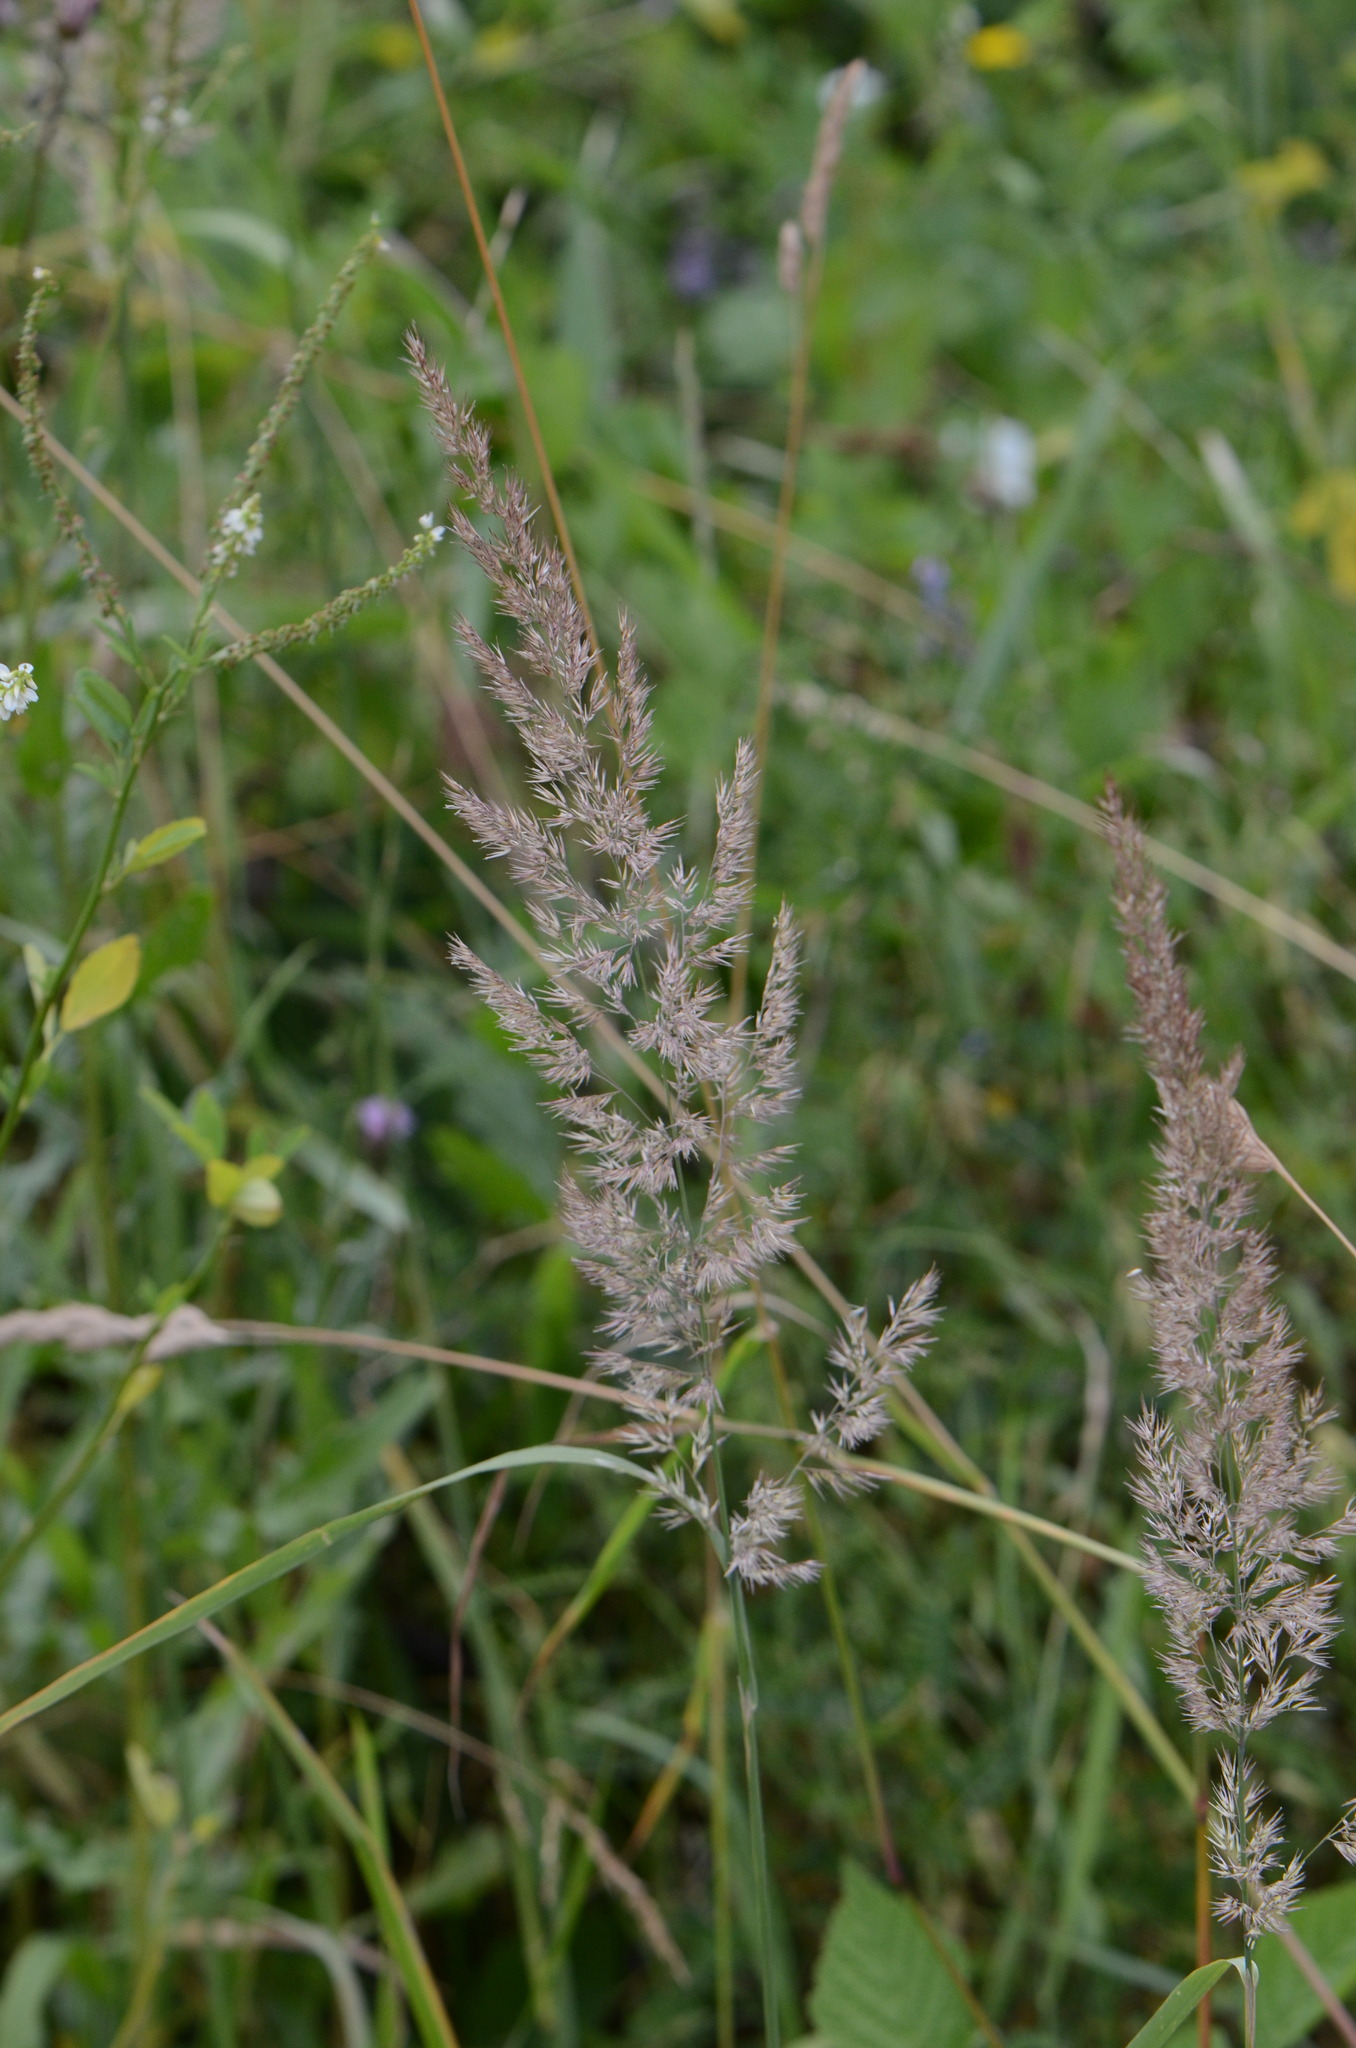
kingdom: Plantae
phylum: Tracheophyta
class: Liliopsida
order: Poales
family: Poaceae
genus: Trisetum
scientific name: Trisetum flavescens
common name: Yellow oat-grass
